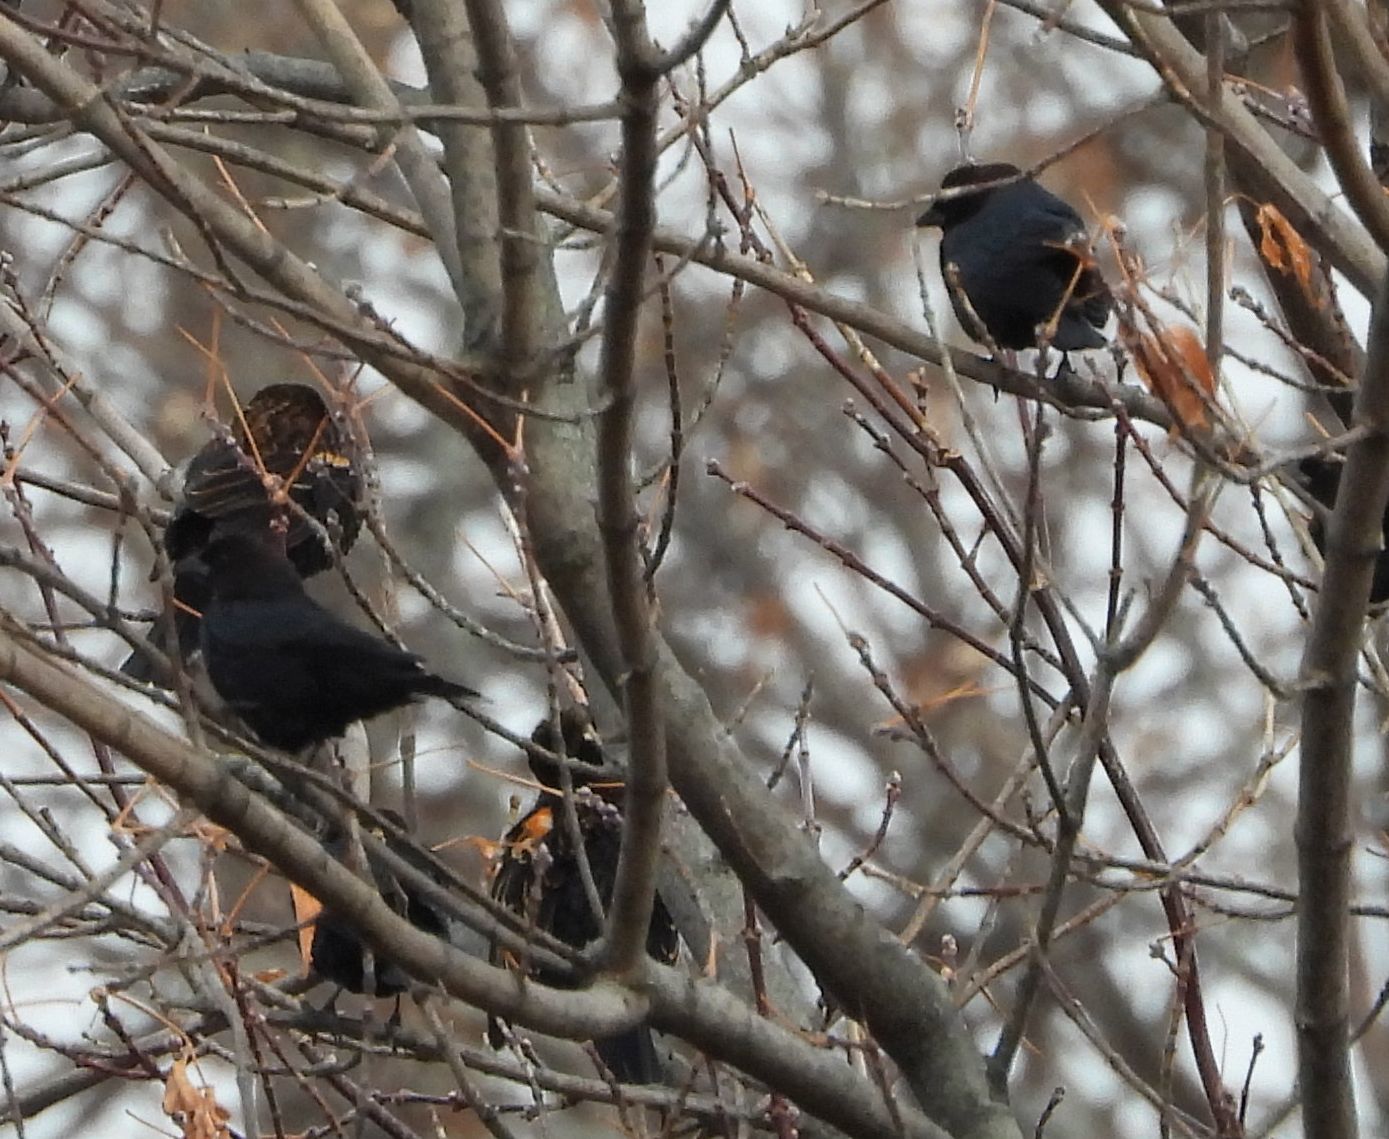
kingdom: Animalia
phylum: Chordata
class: Aves
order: Passeriformes
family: Icteridae
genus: Molothrus
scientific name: Molothrus ater
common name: Brown-headed cowbird
